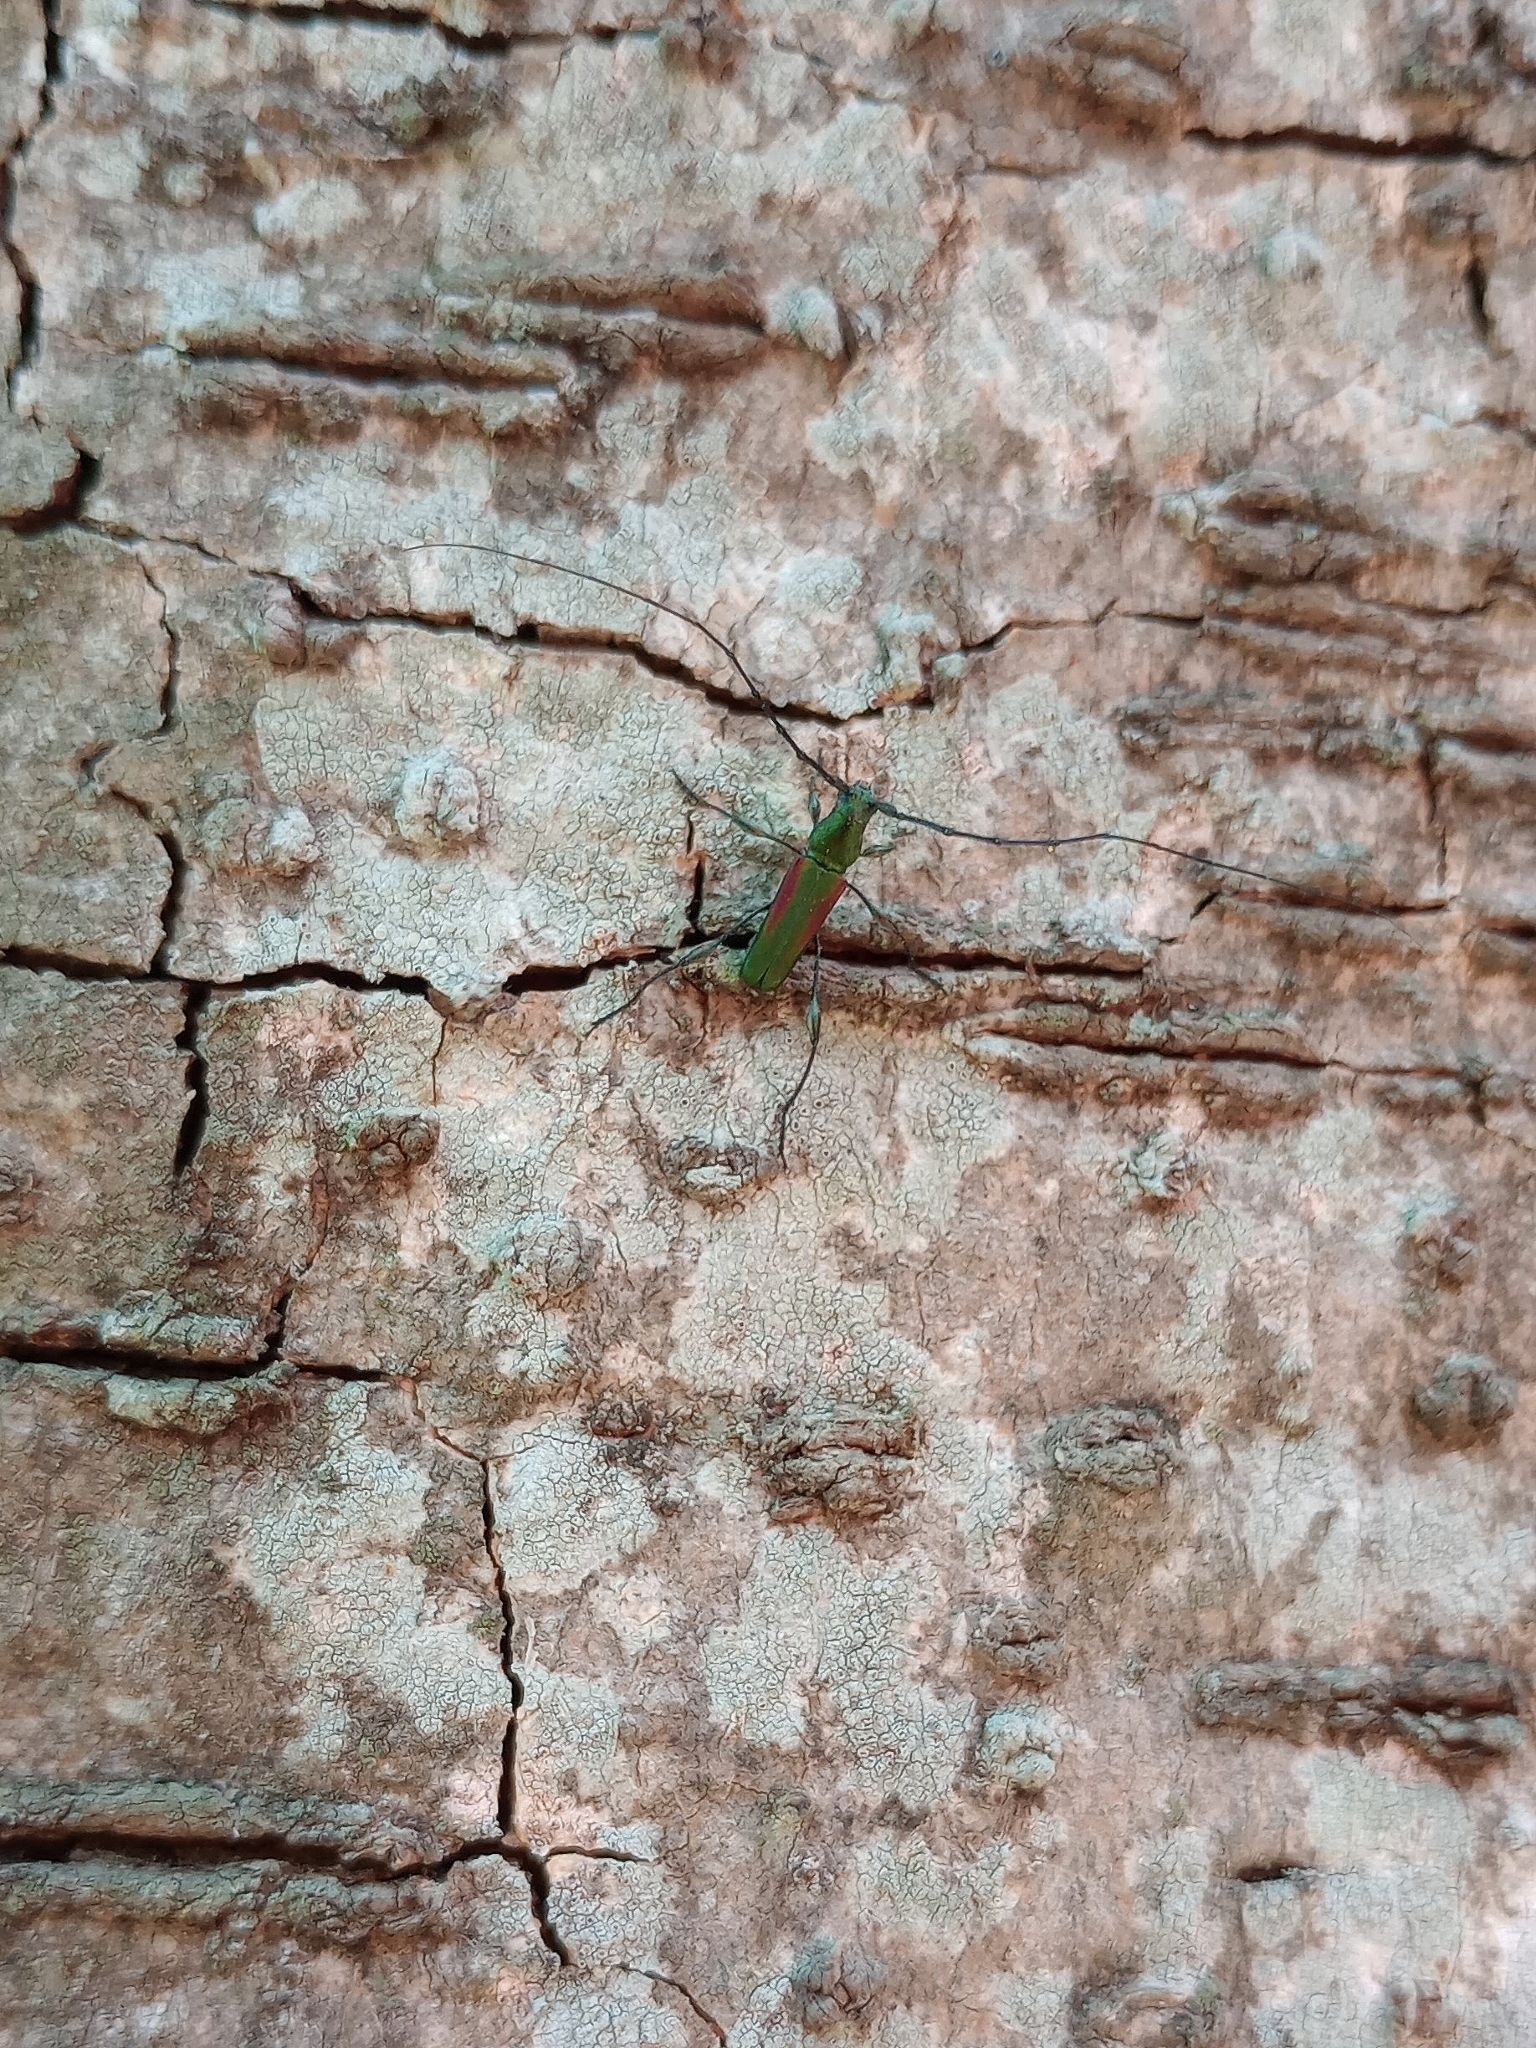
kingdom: Animalia
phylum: Arthropoda
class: Insecta
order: Coleoptera
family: Cerambycidae
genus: Ischionodonta
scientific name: Ischionodonta iridipennis
